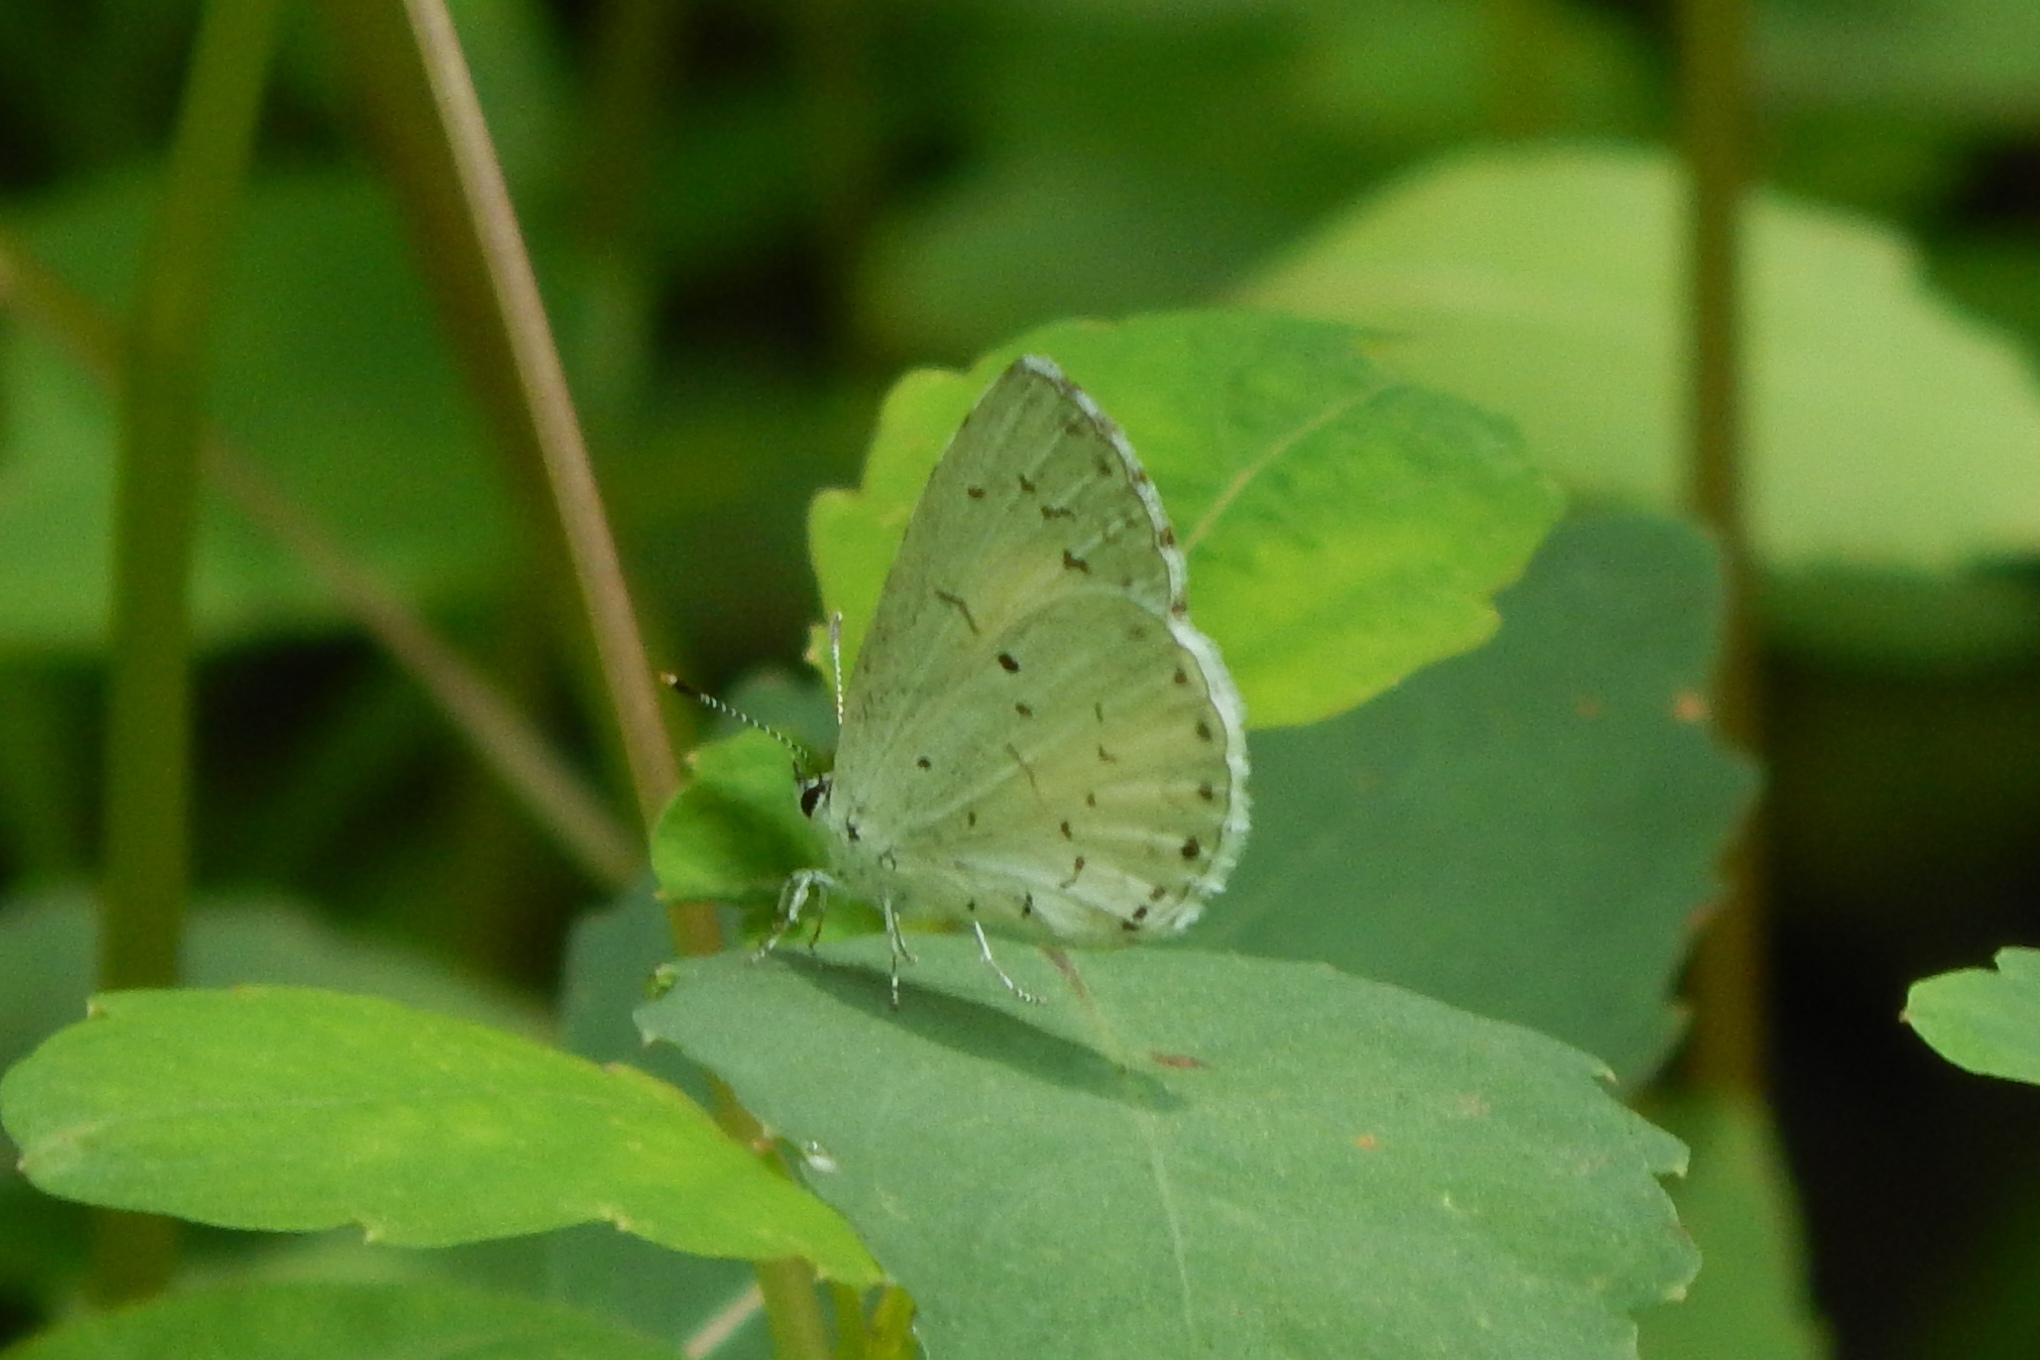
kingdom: Animalia
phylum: Arthropoda
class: Insecta
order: Lepidoptera
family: Lycaenidae
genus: Cyaniris
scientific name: Cyaniris neglecta
